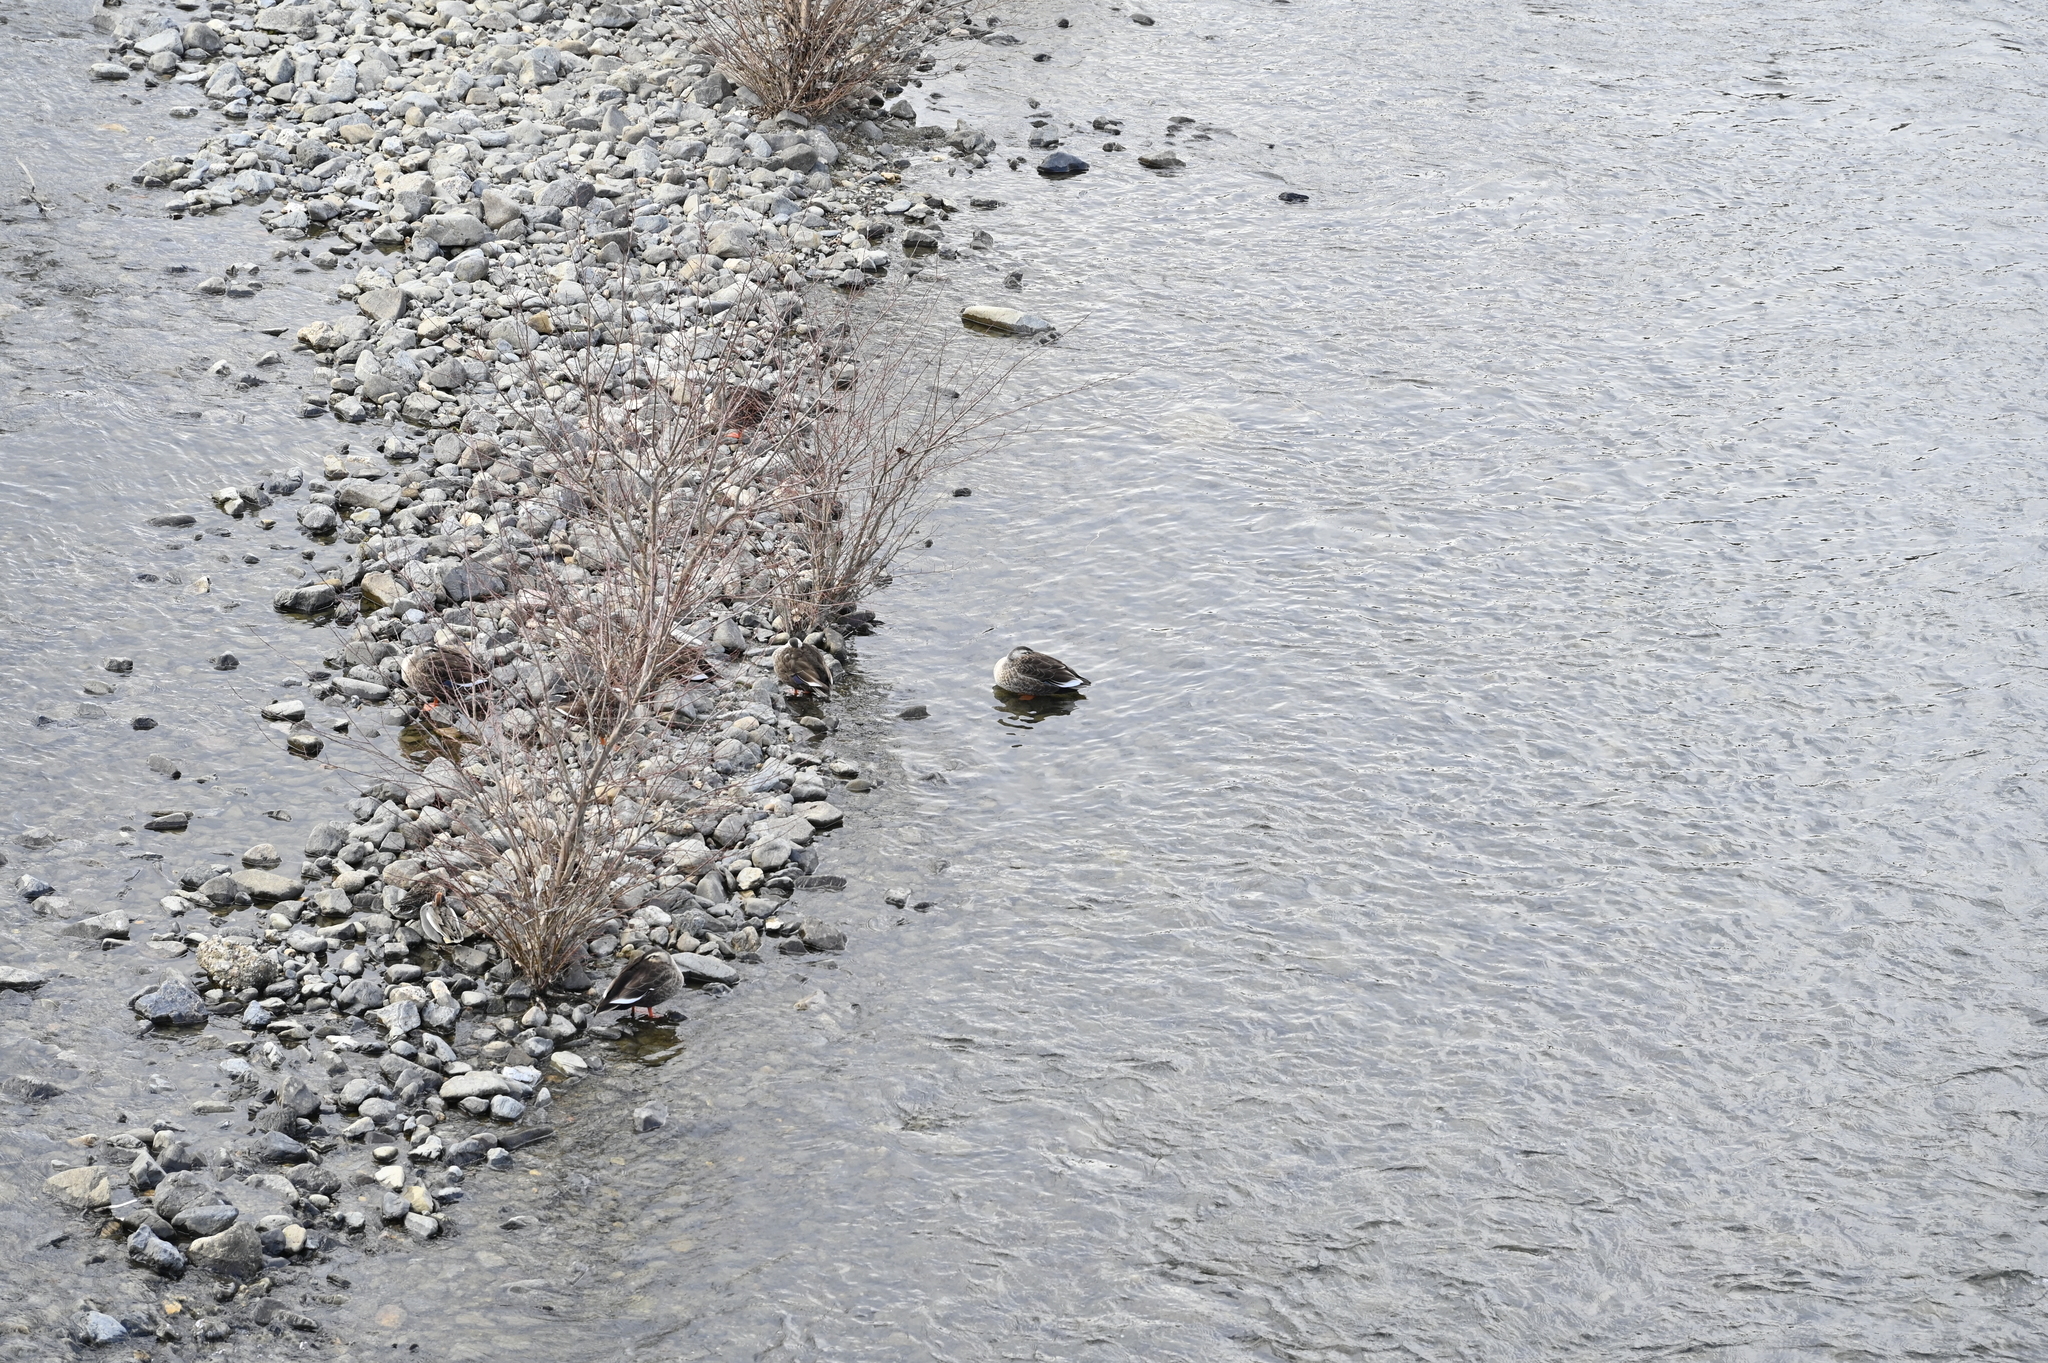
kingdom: Animalia
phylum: Chordata
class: Aves
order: Anseriformes
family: Anatidae
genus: Anas
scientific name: Anas zonorhyncha
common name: Eastern spot-billed duck
